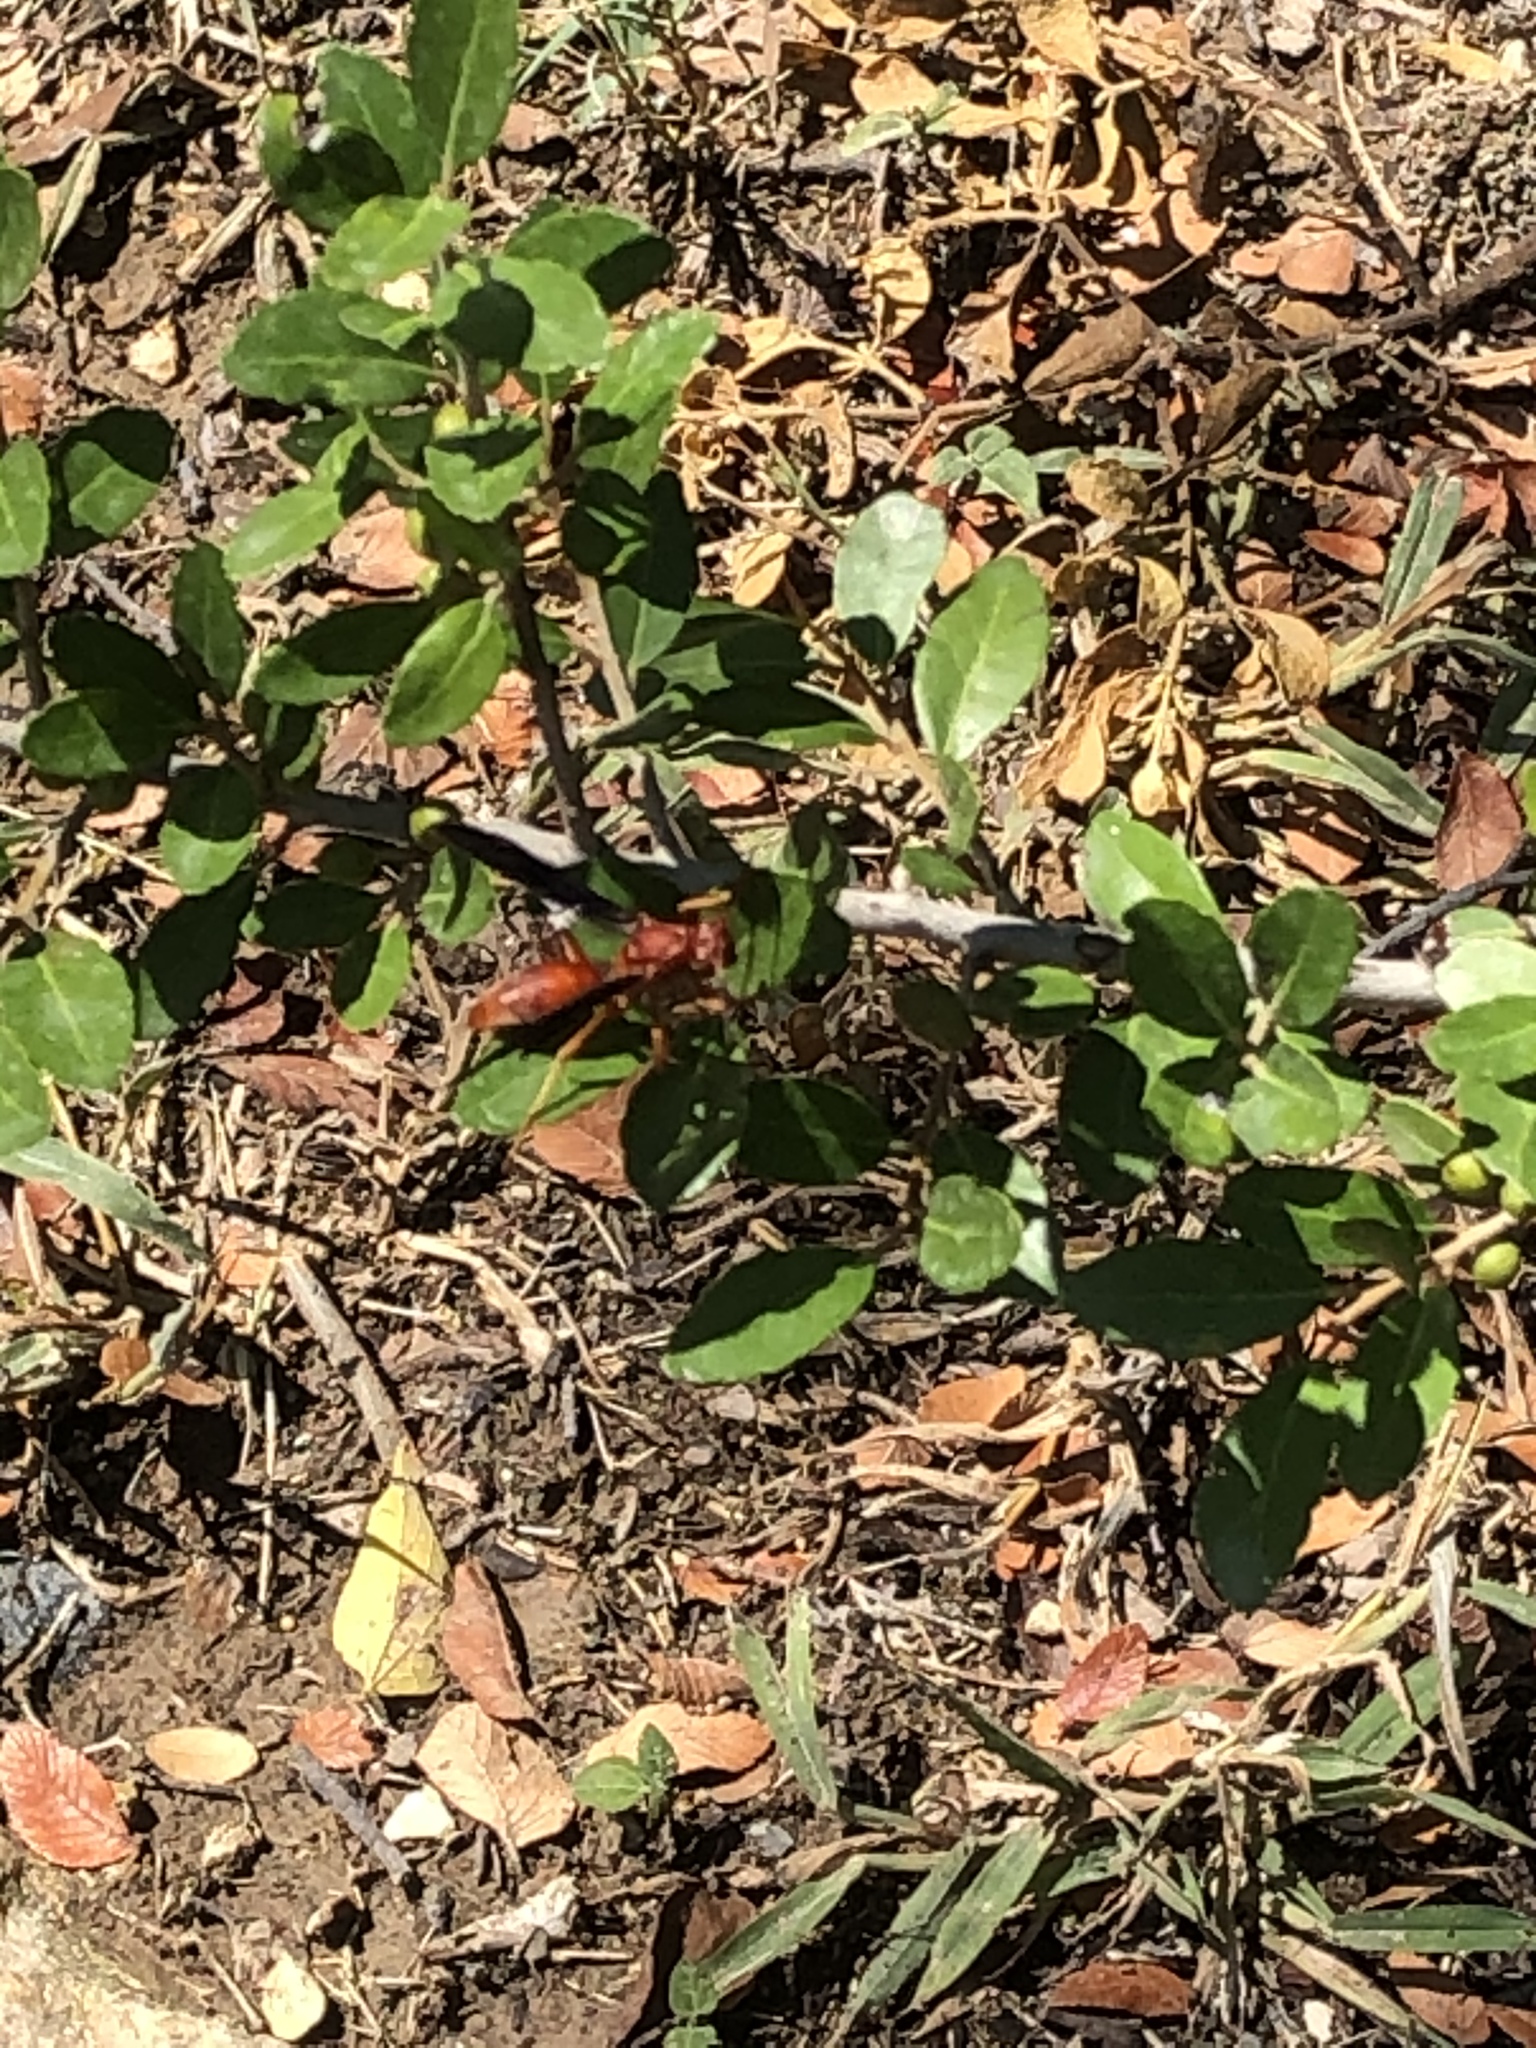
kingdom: Animalia
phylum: Arthropoda
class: Insecta
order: Hymenoptera
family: Vespidae
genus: Fuscopolistes
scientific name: Fuscopolistes
